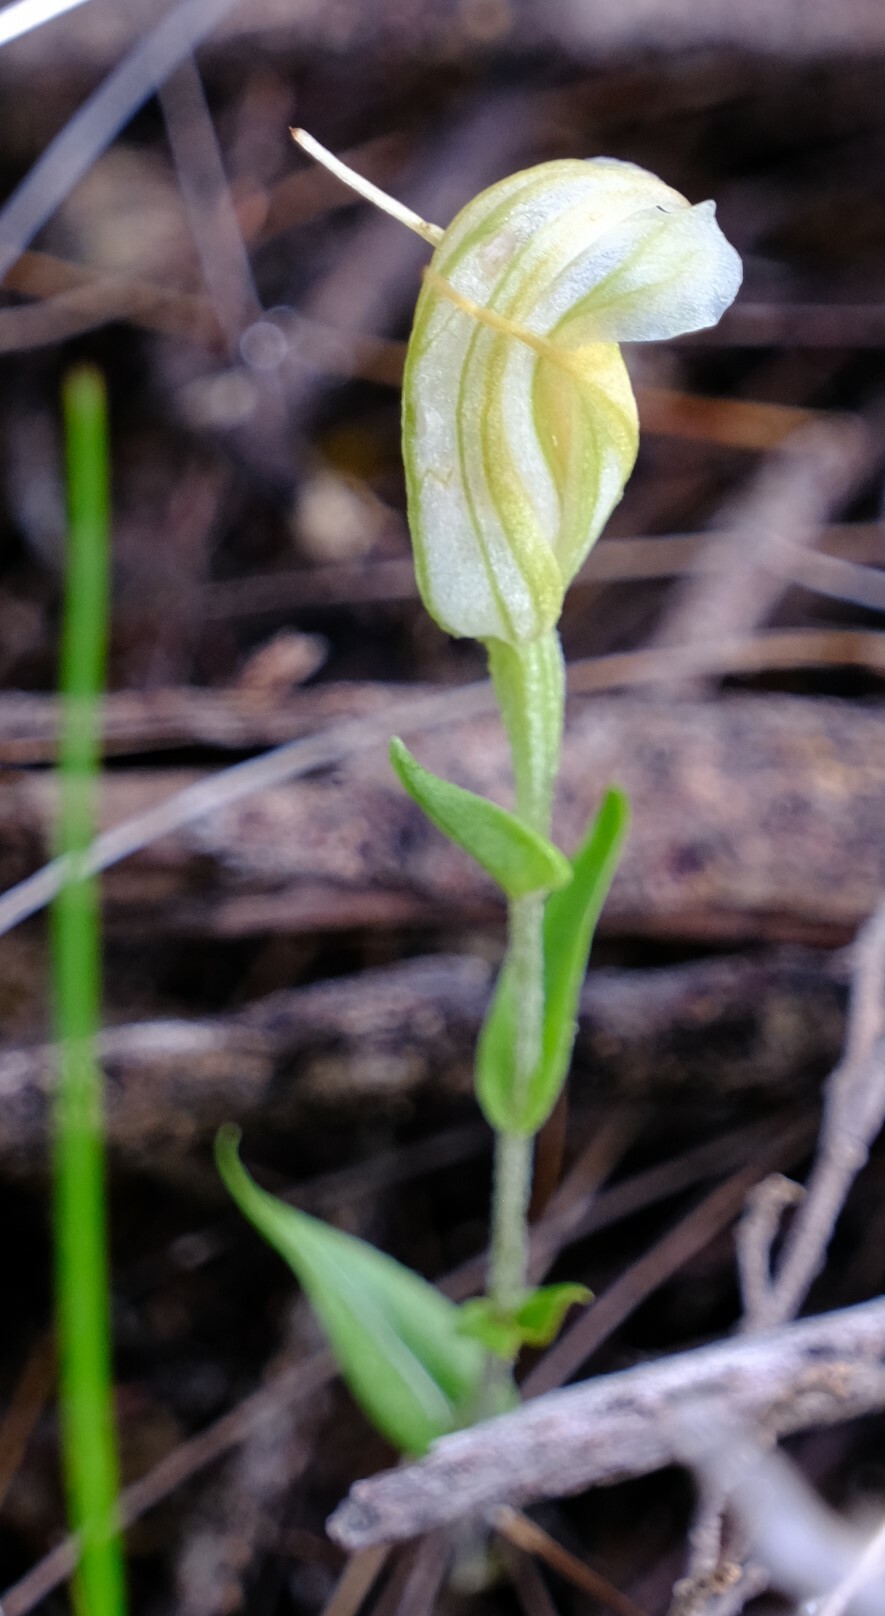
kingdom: Plantae
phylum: Tracheophyta
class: Liliopsida
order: Asparagales
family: Orchidaceae
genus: Pterostylis
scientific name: Pterostylis dilatata
